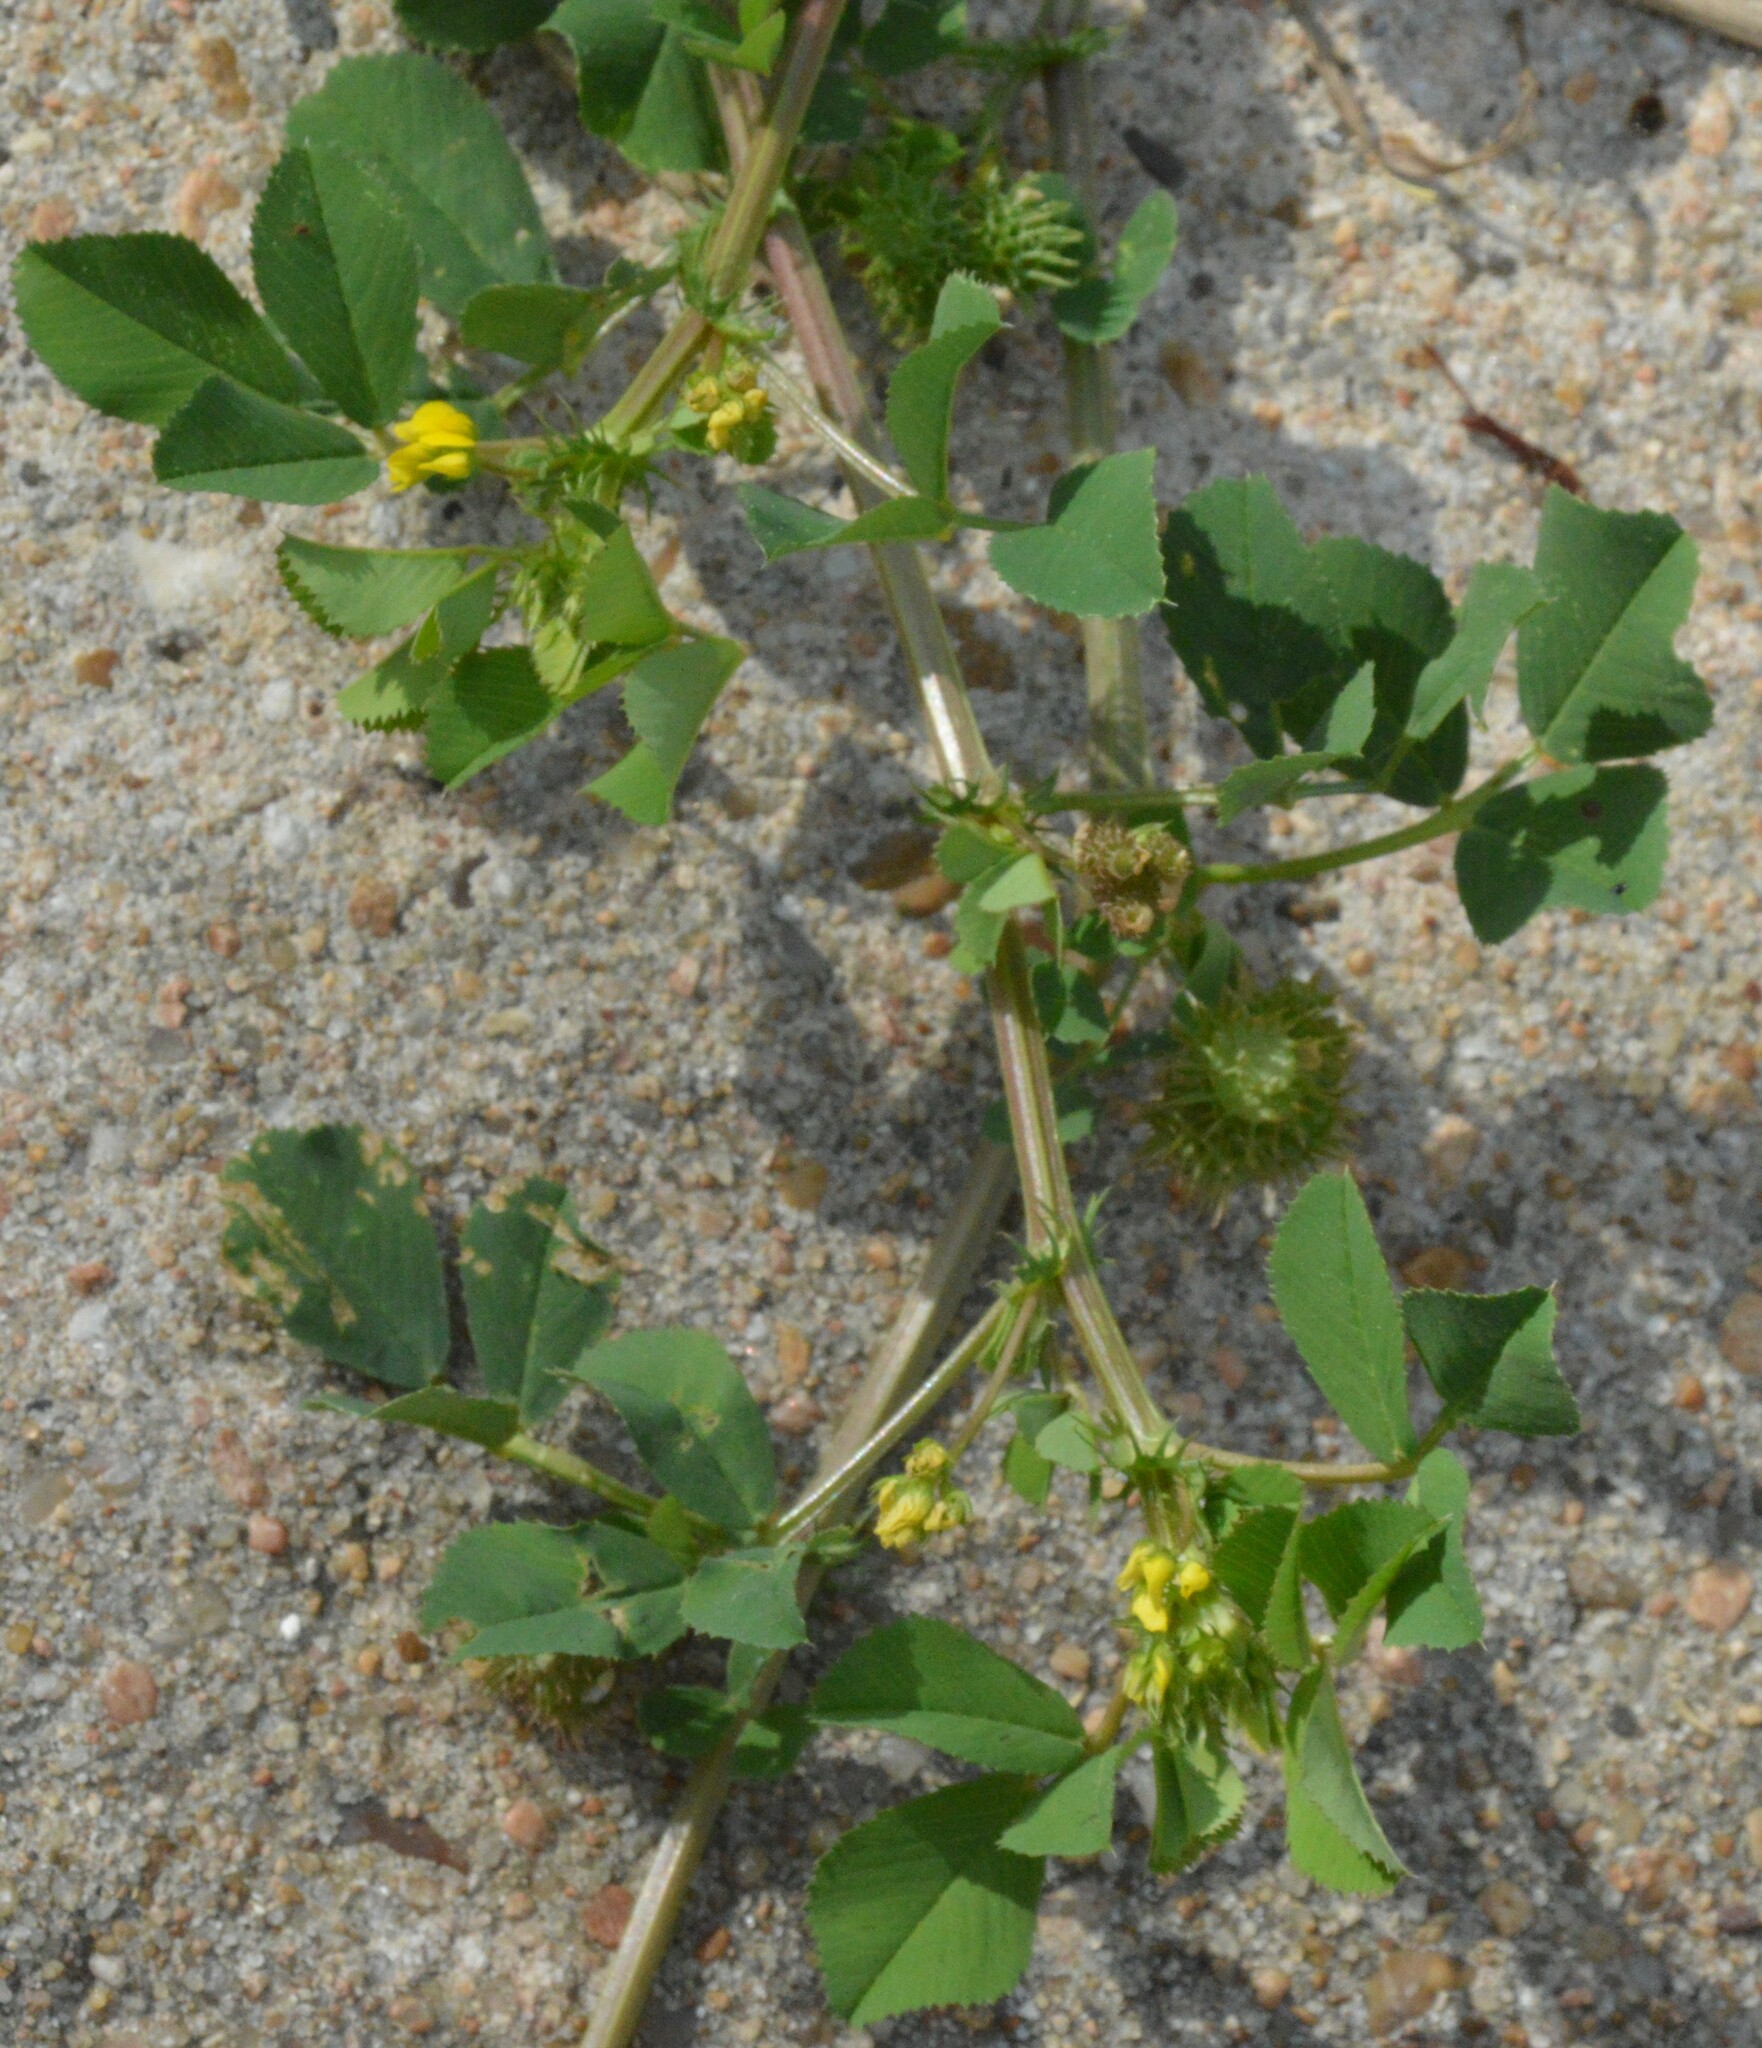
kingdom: Plantae
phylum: Tracheophyta
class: Magnoliopsida
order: Fabales
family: Fabaceae
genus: Medicago
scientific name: Medicago polymorpha
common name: Burclover
